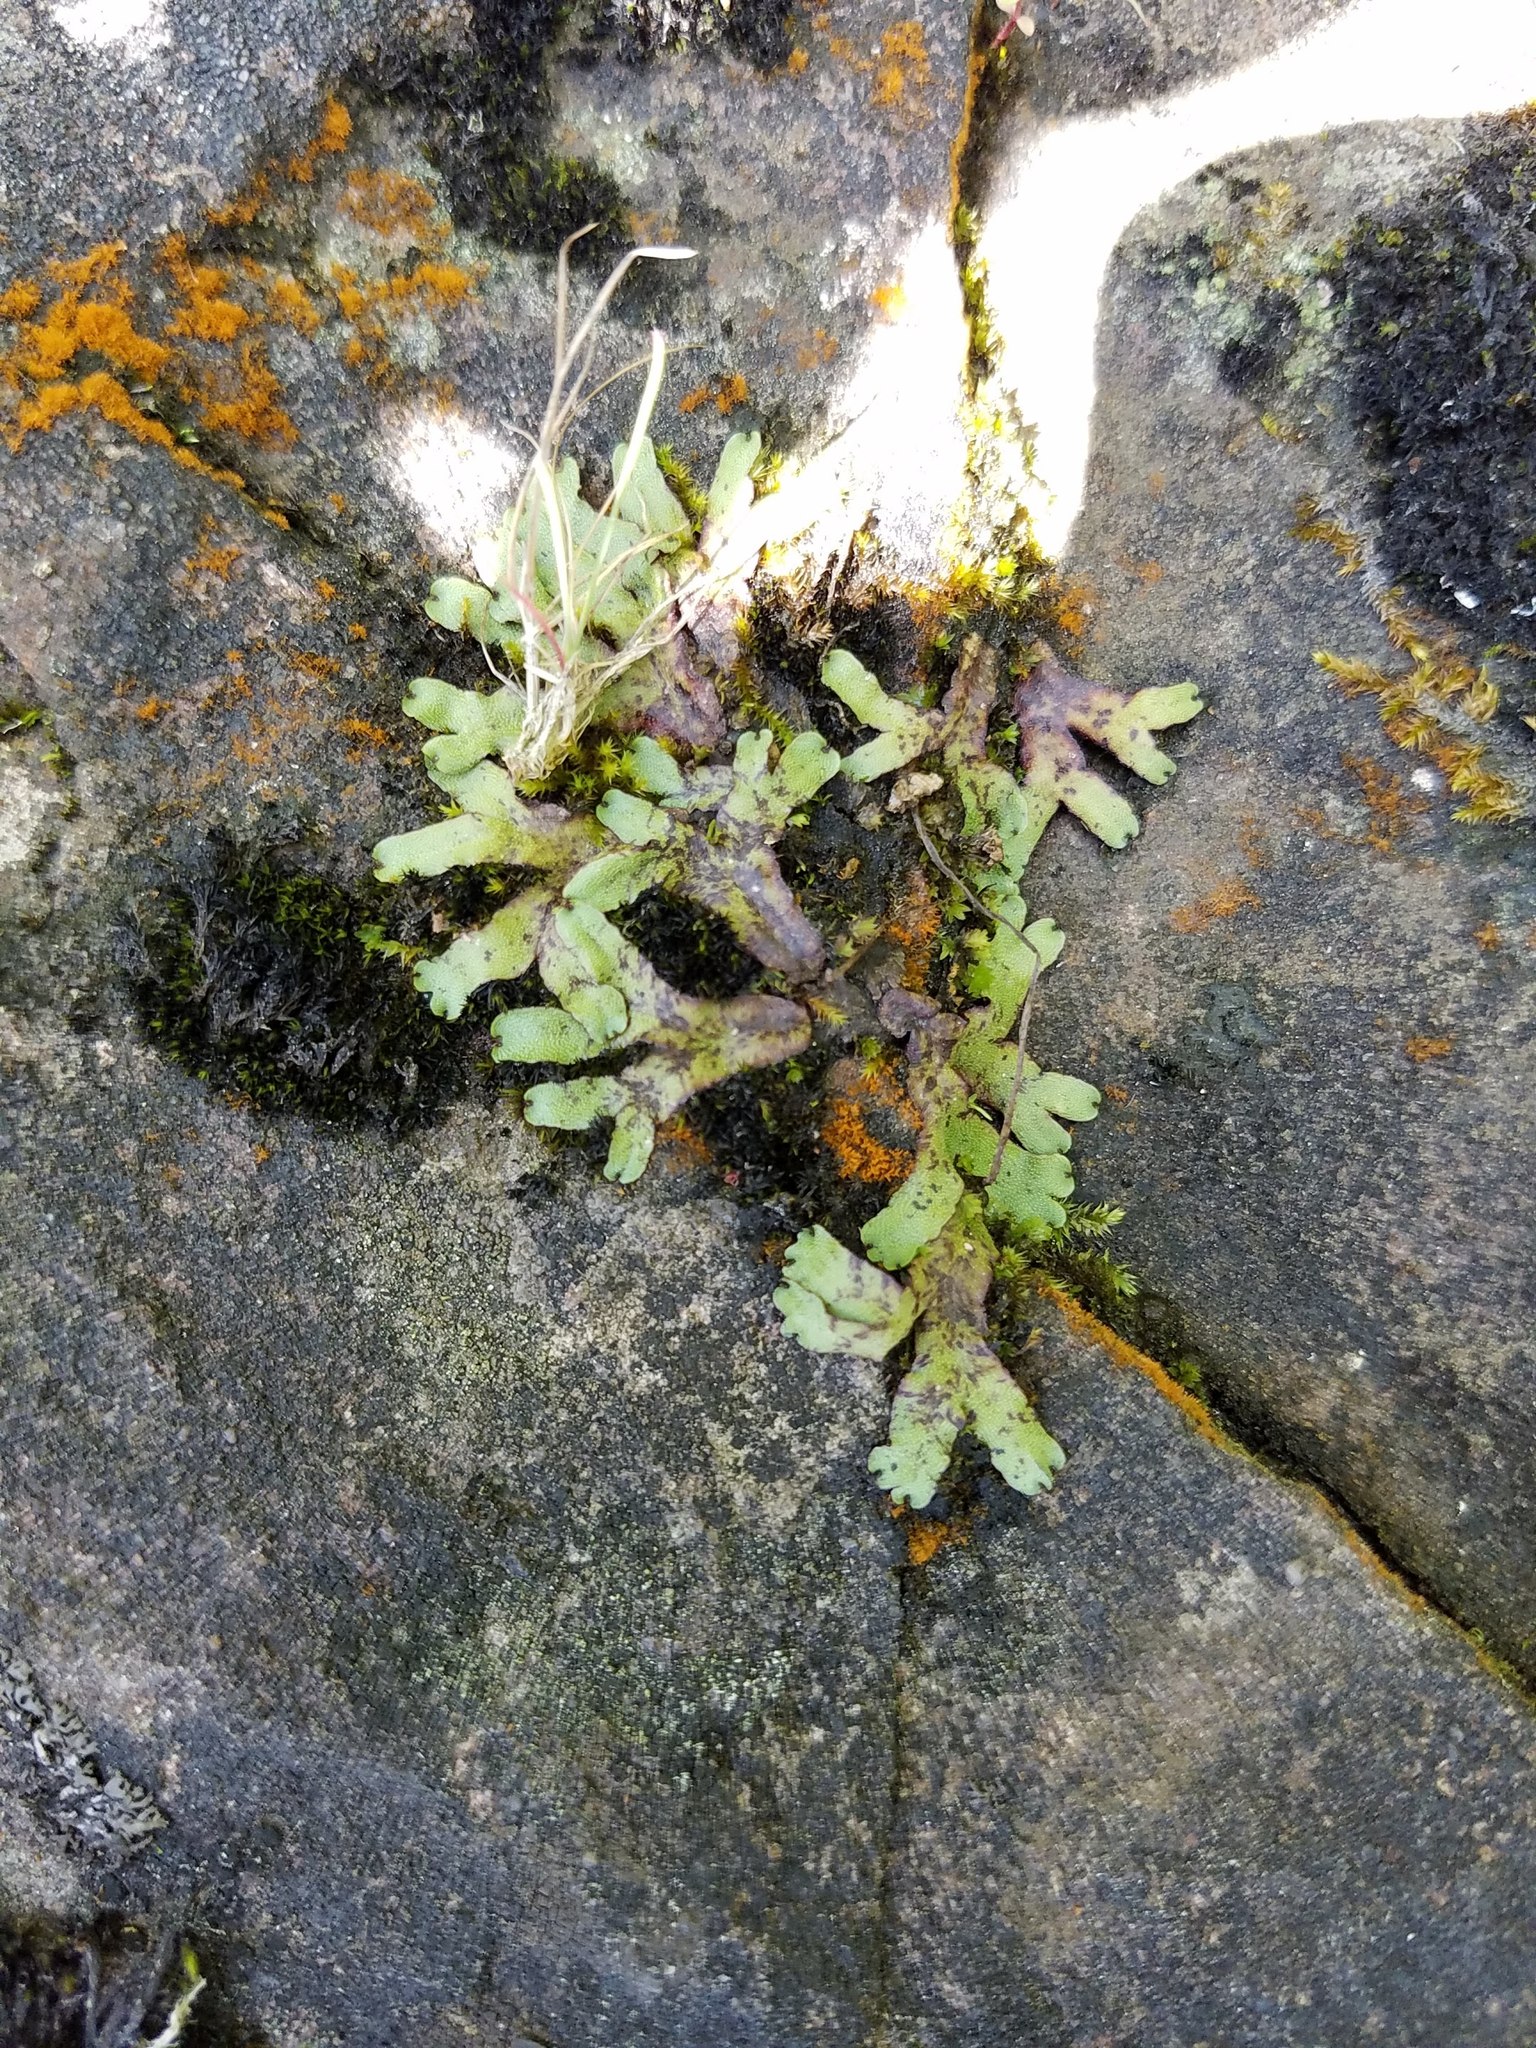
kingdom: Plantae
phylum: Marchantiophyta
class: Marchantiopsida
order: Marchantiales
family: Marchantiaceae
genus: Marchantia
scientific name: Marchantia quadrata
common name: Narrow mushroom-headed liverwort
